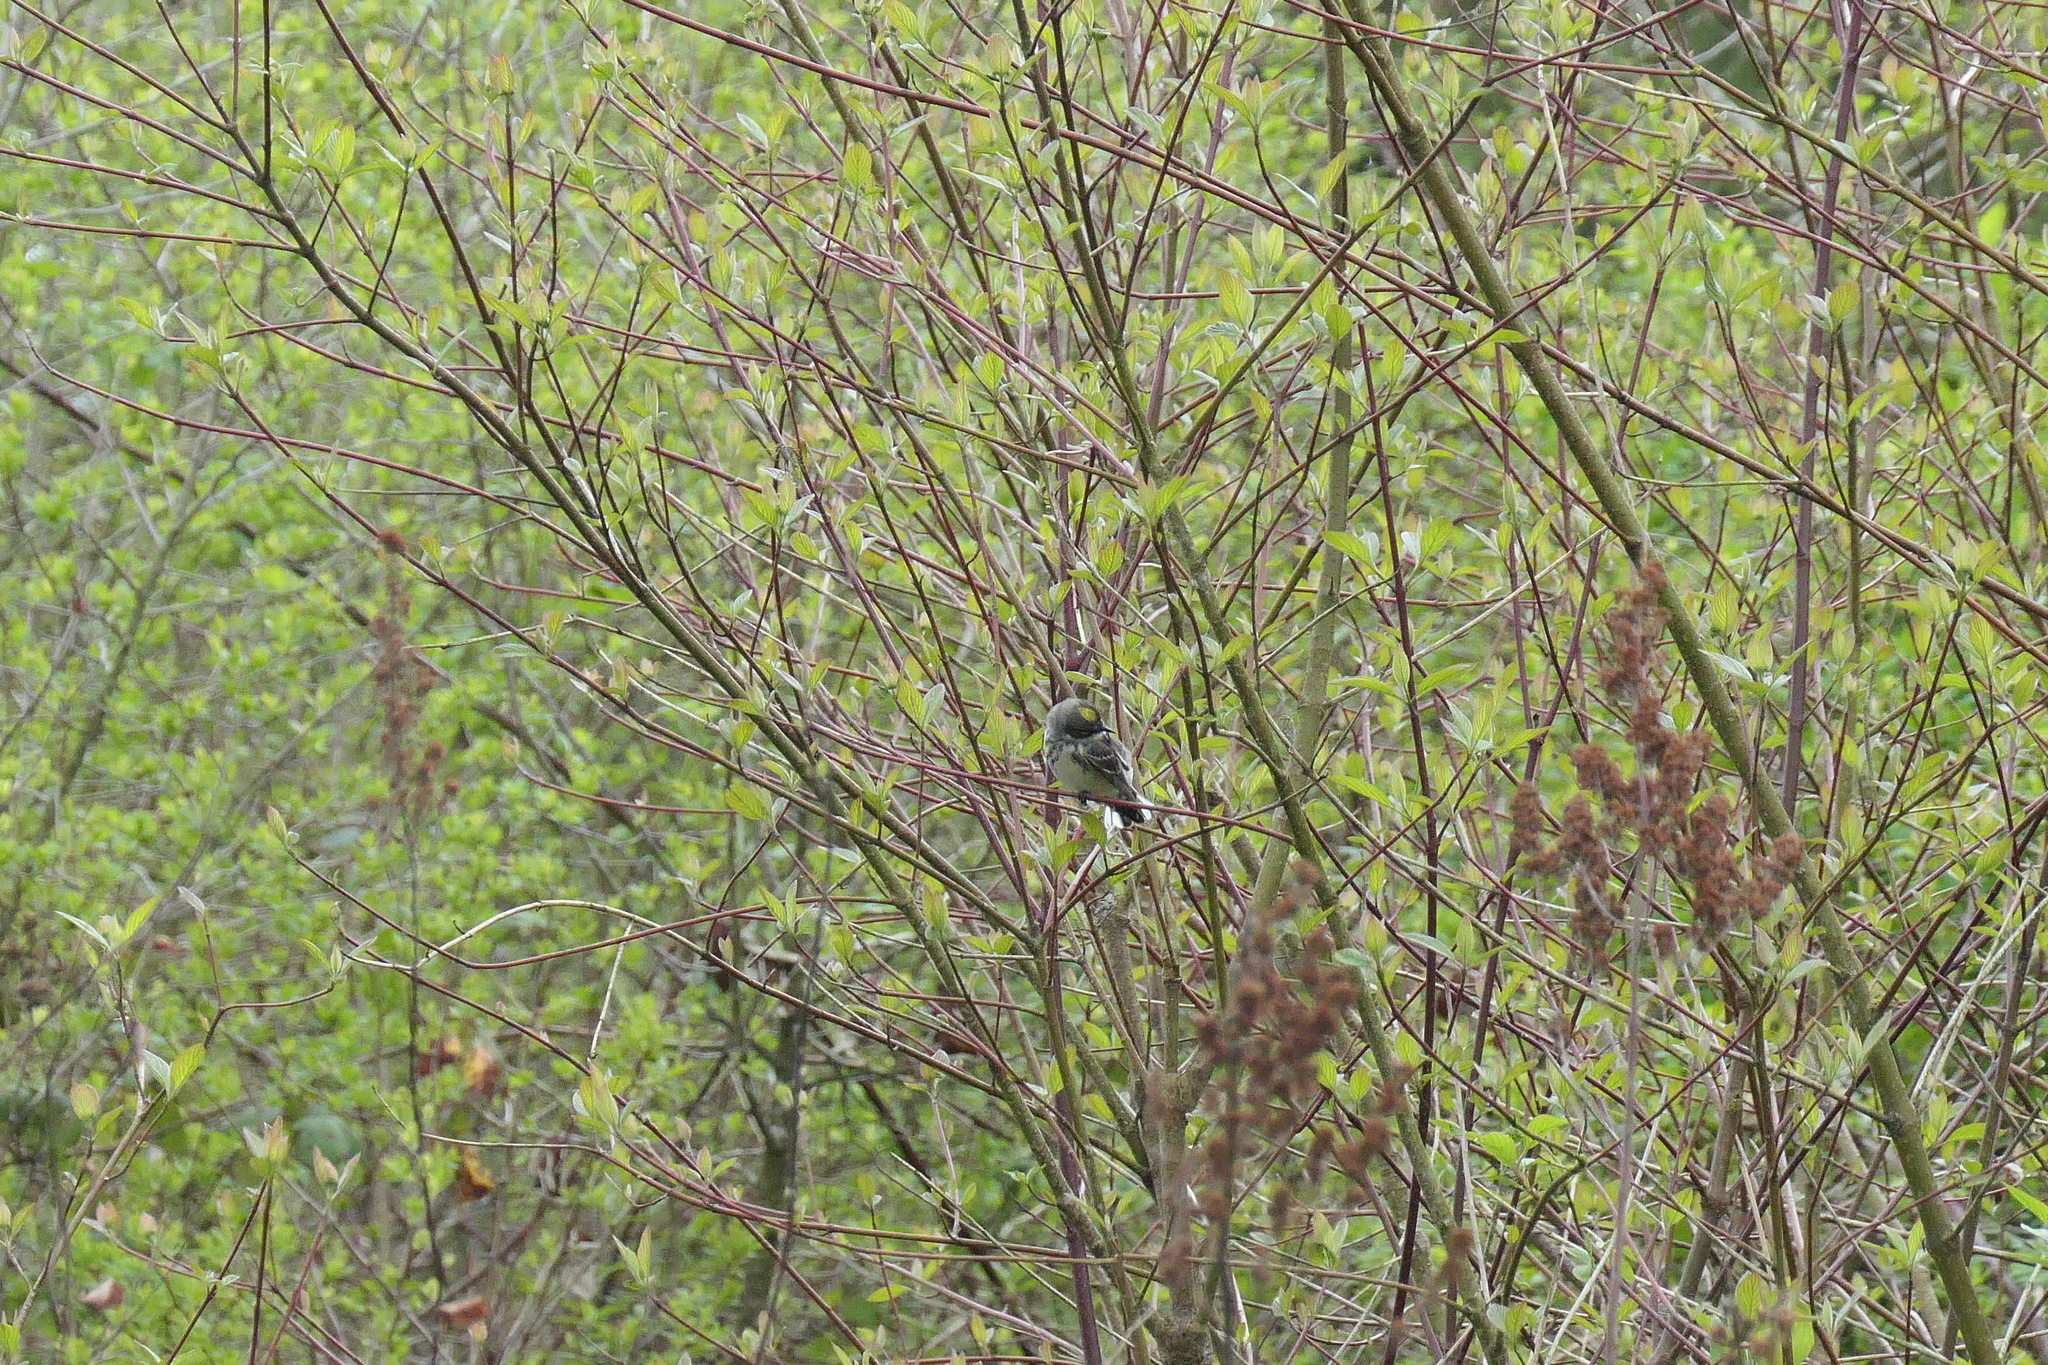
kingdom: Animalia
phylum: Chordata
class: Aves
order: Passeriformes
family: Parulidae
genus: Setophaga
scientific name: Setophaga coronata
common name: Myrtle warbler
